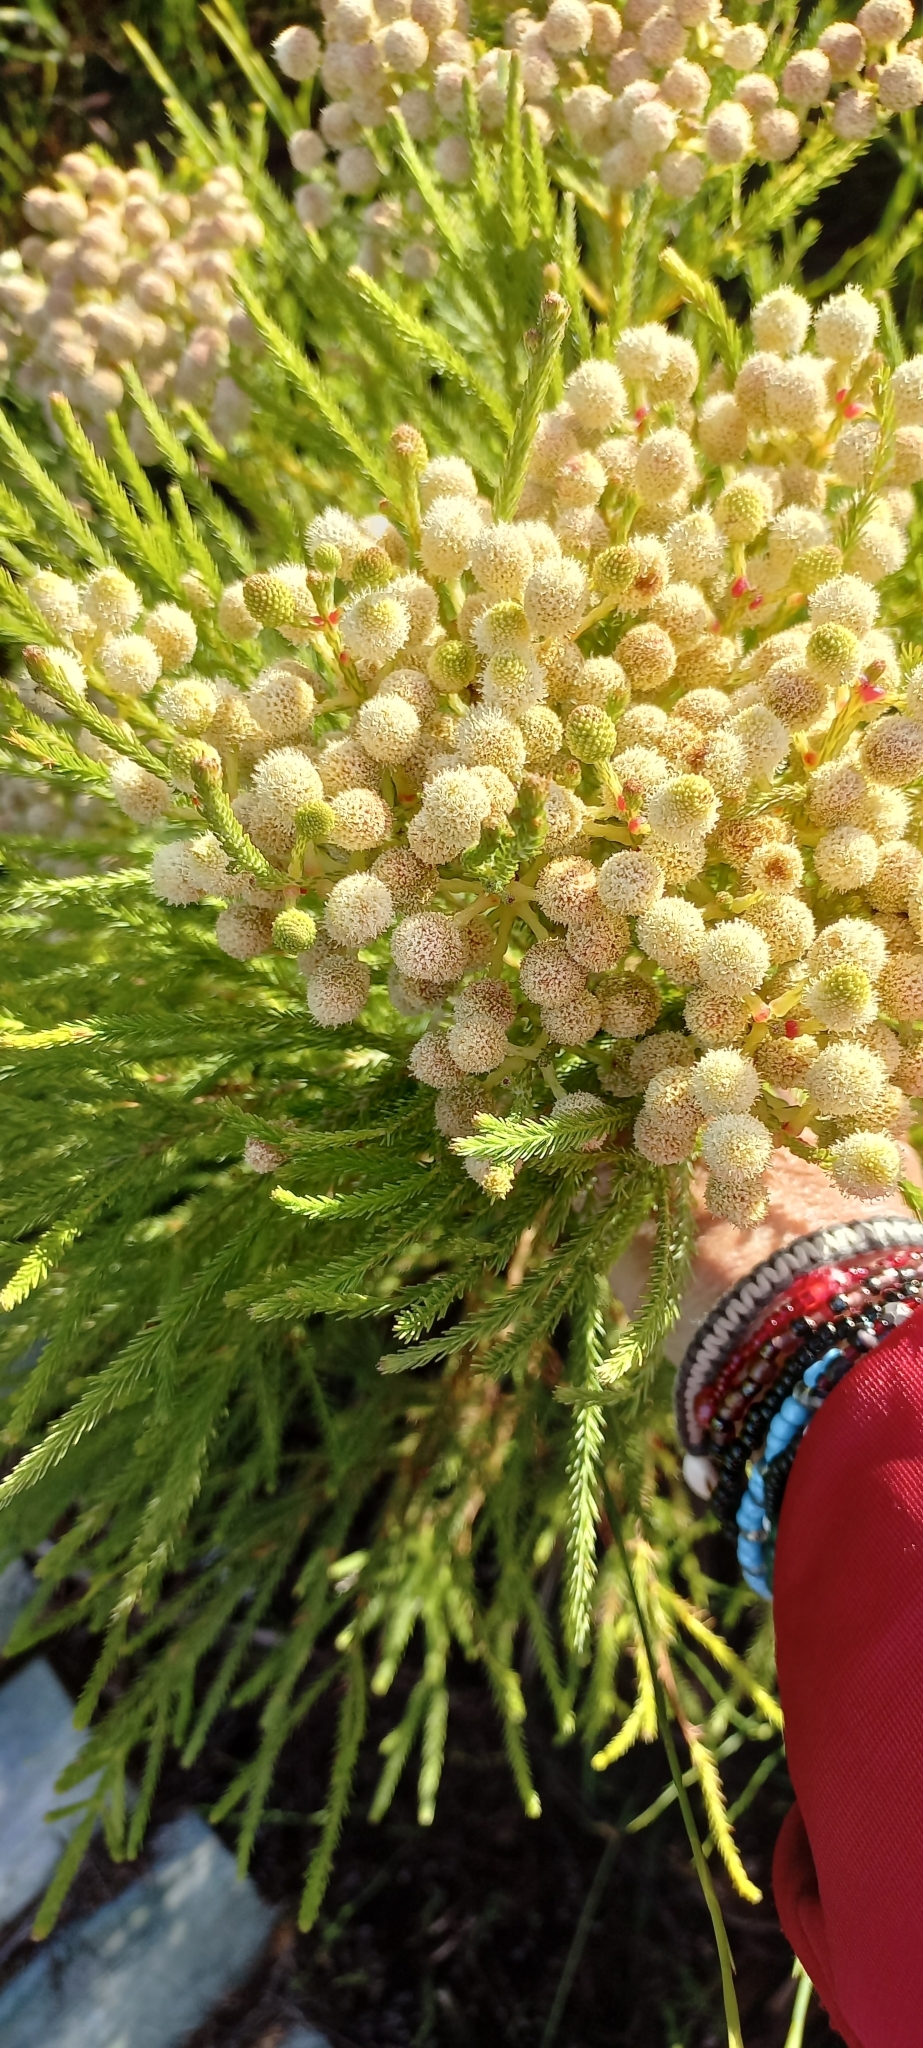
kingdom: Plantae
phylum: Tracheophyta
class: Magnoliopsida
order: Bruniales
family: Bruniaceae
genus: Berzelia
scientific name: Berzelia lanuginosa
